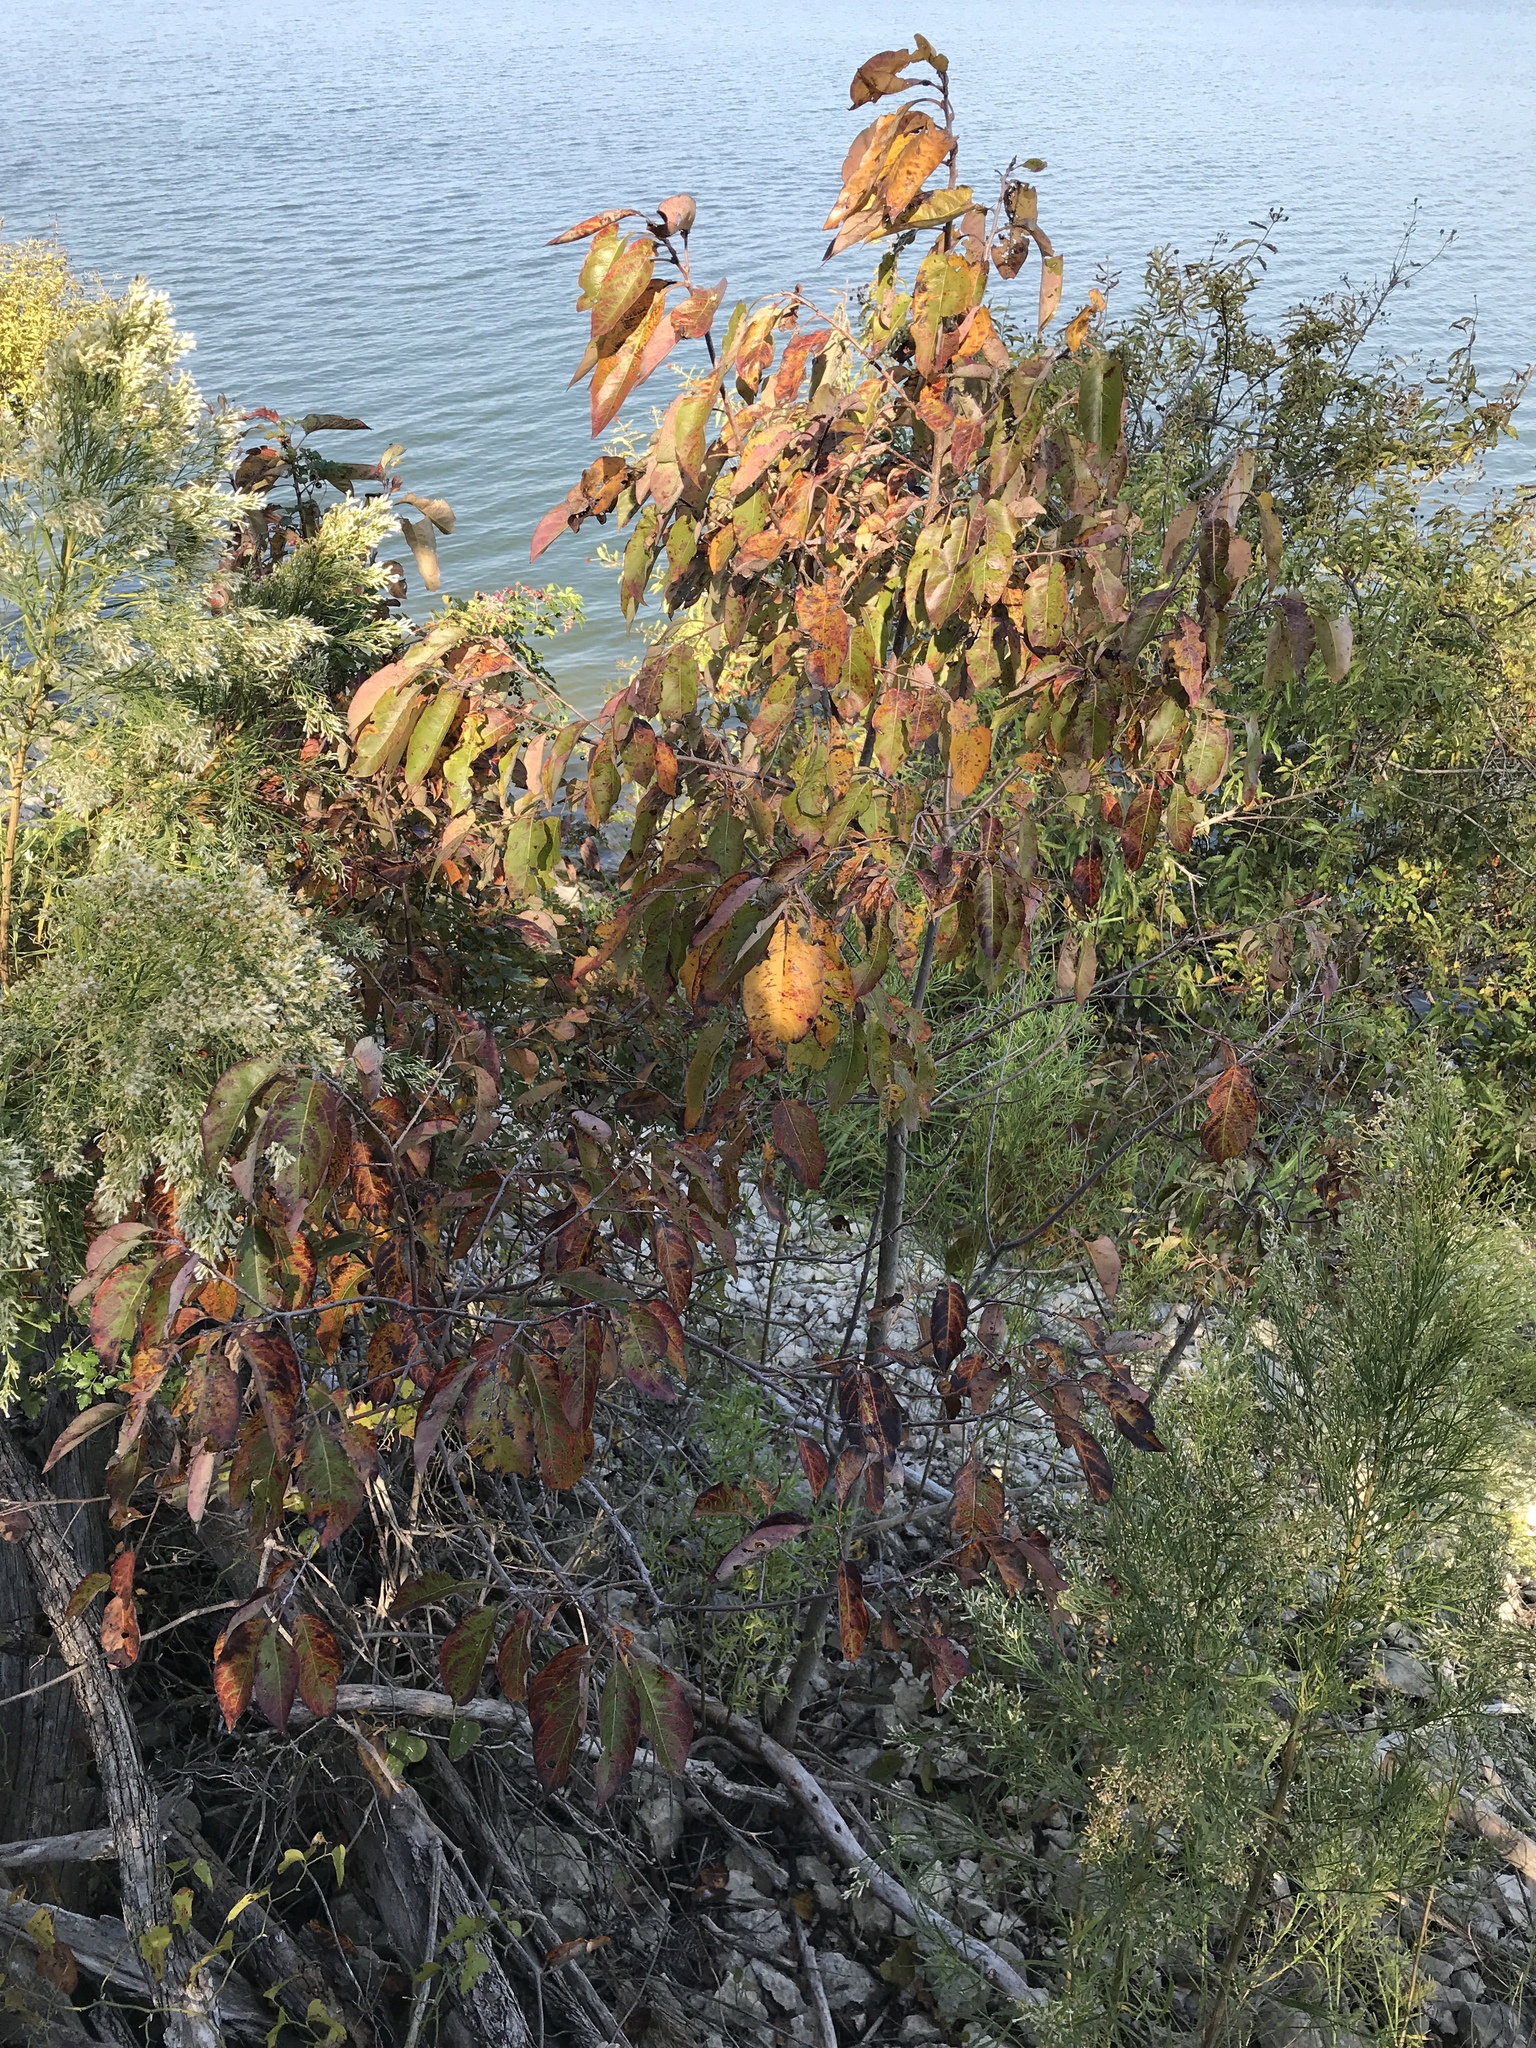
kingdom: Plantae
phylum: Tracheophyta
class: Magnoliopsida
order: Ericales
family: Ebenaceae
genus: Diospyros
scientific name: Diospyros virginiana
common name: Persimmon
